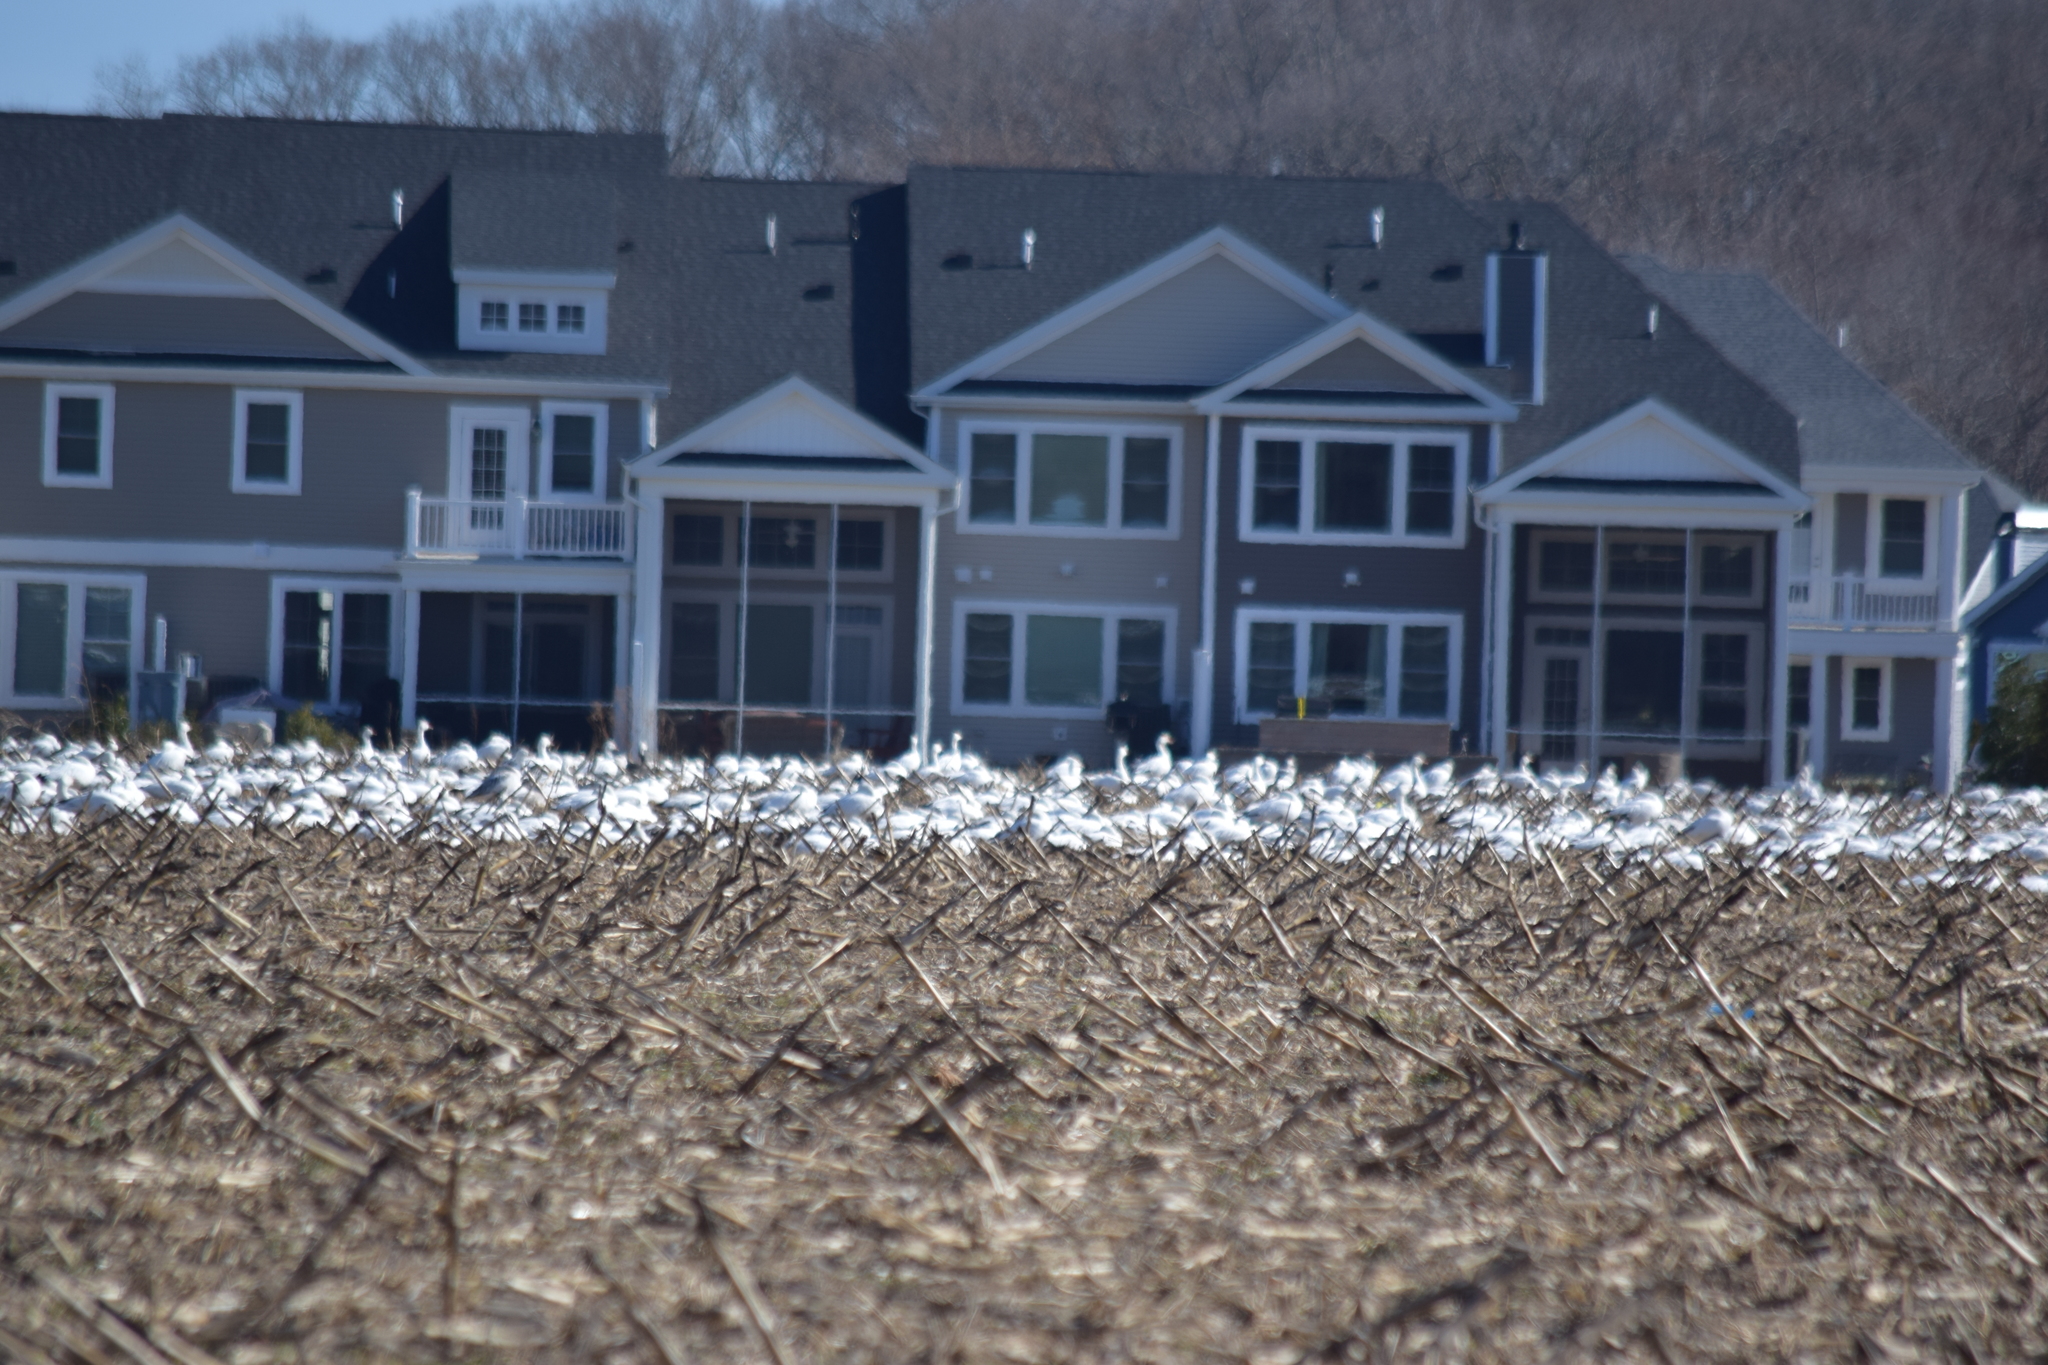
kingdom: Animalia
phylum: Chordata
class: Aves
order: Anseriformes
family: Anatidae
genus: Anser
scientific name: Anser caerulescens
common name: Snow goose
